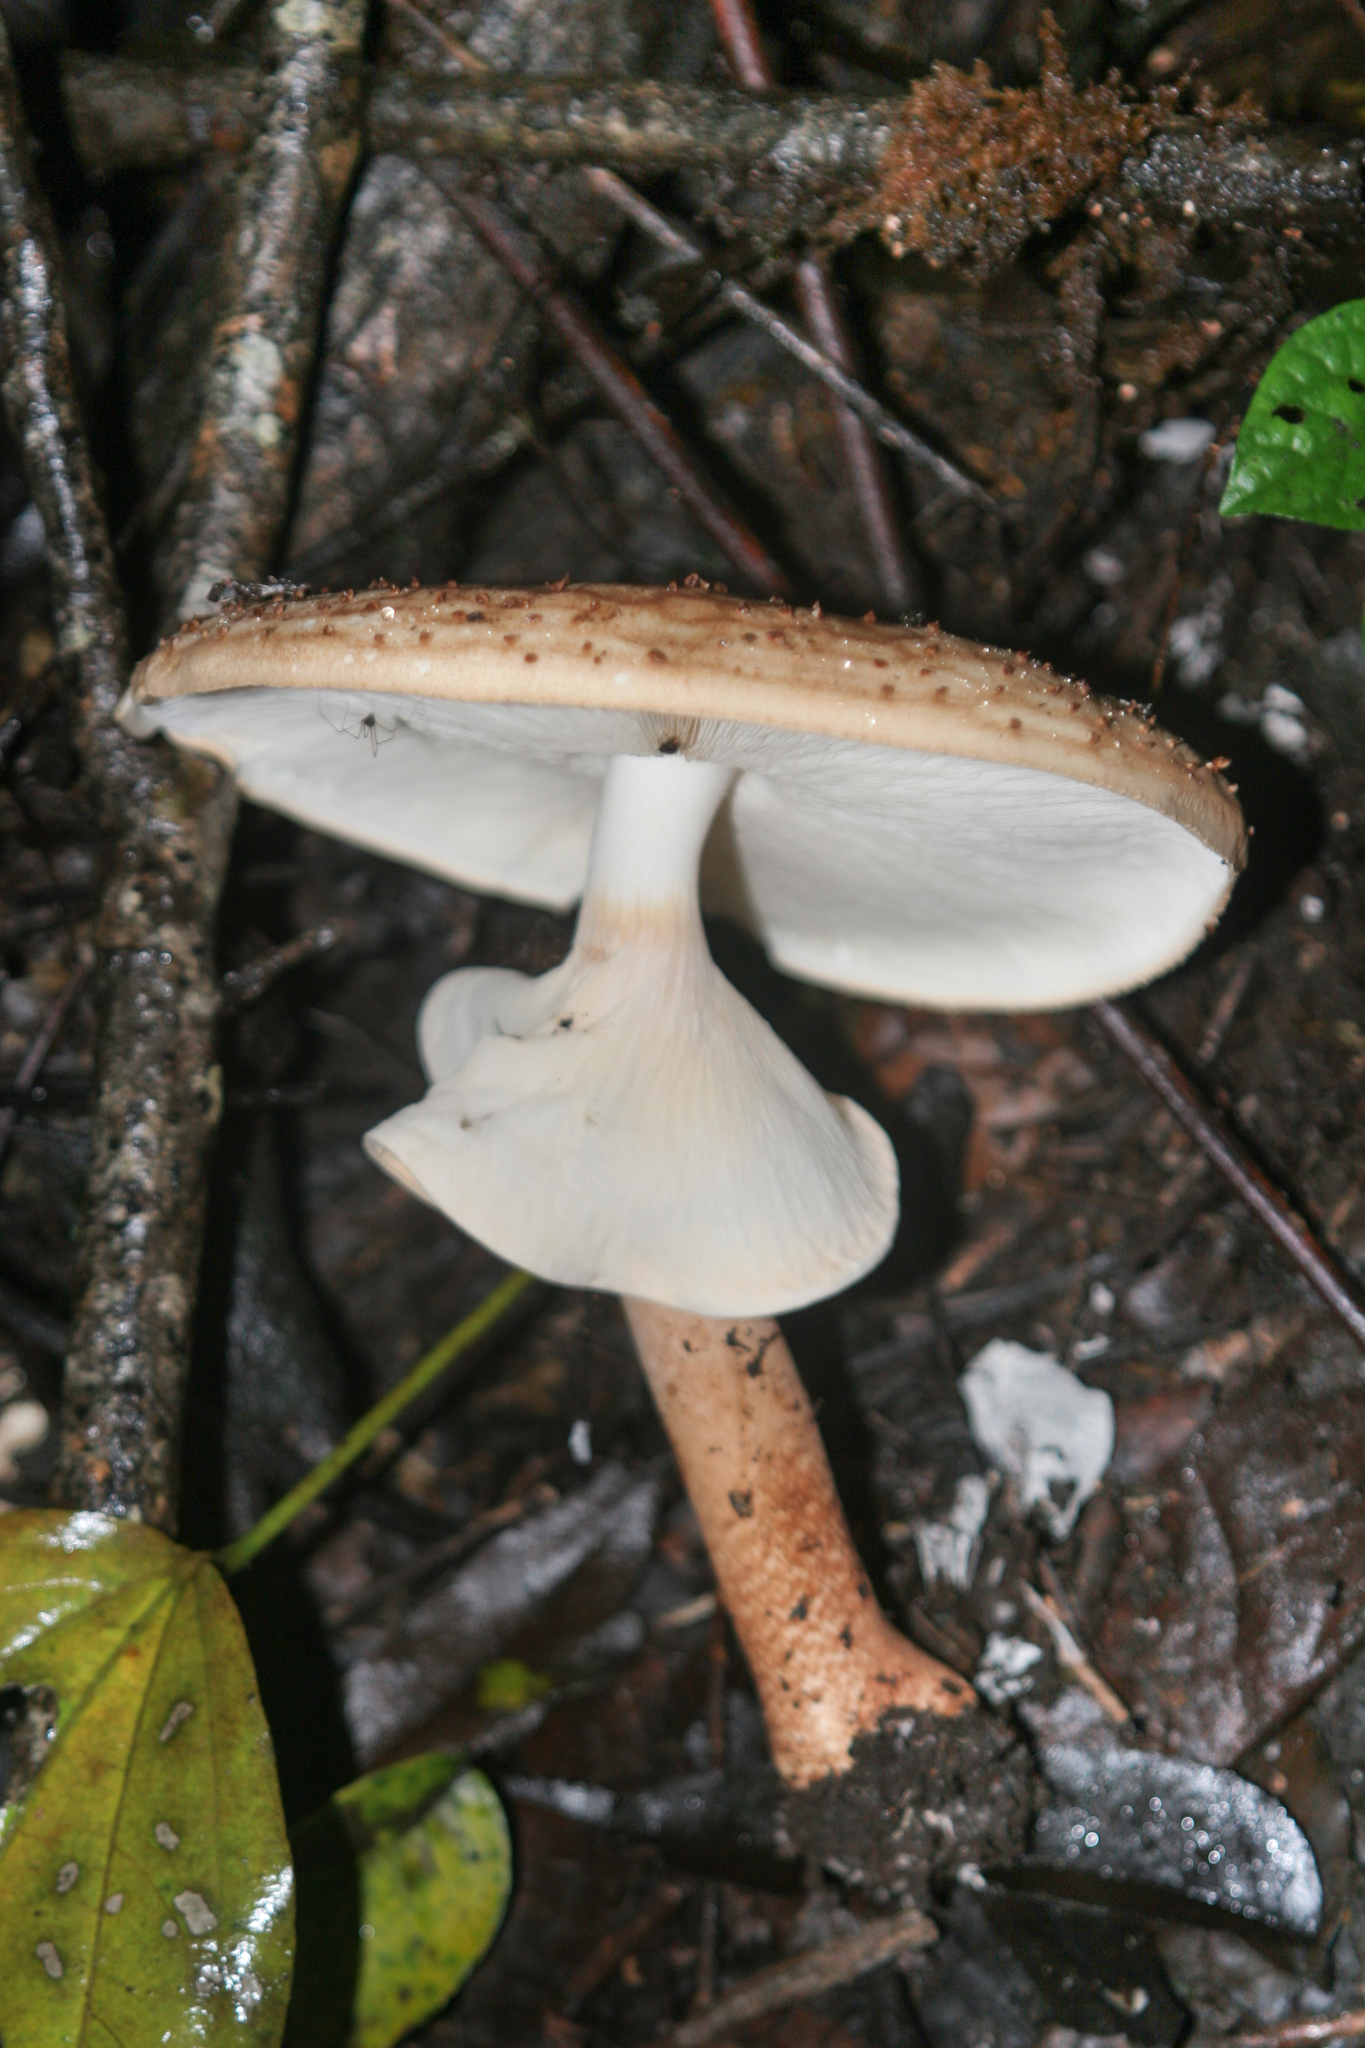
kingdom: Fungi
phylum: Basidiomycota
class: Agaricomycetes
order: Agaricales
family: Agaricaceae
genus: Cystolepiota
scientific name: Cystolepiota hemisclera
